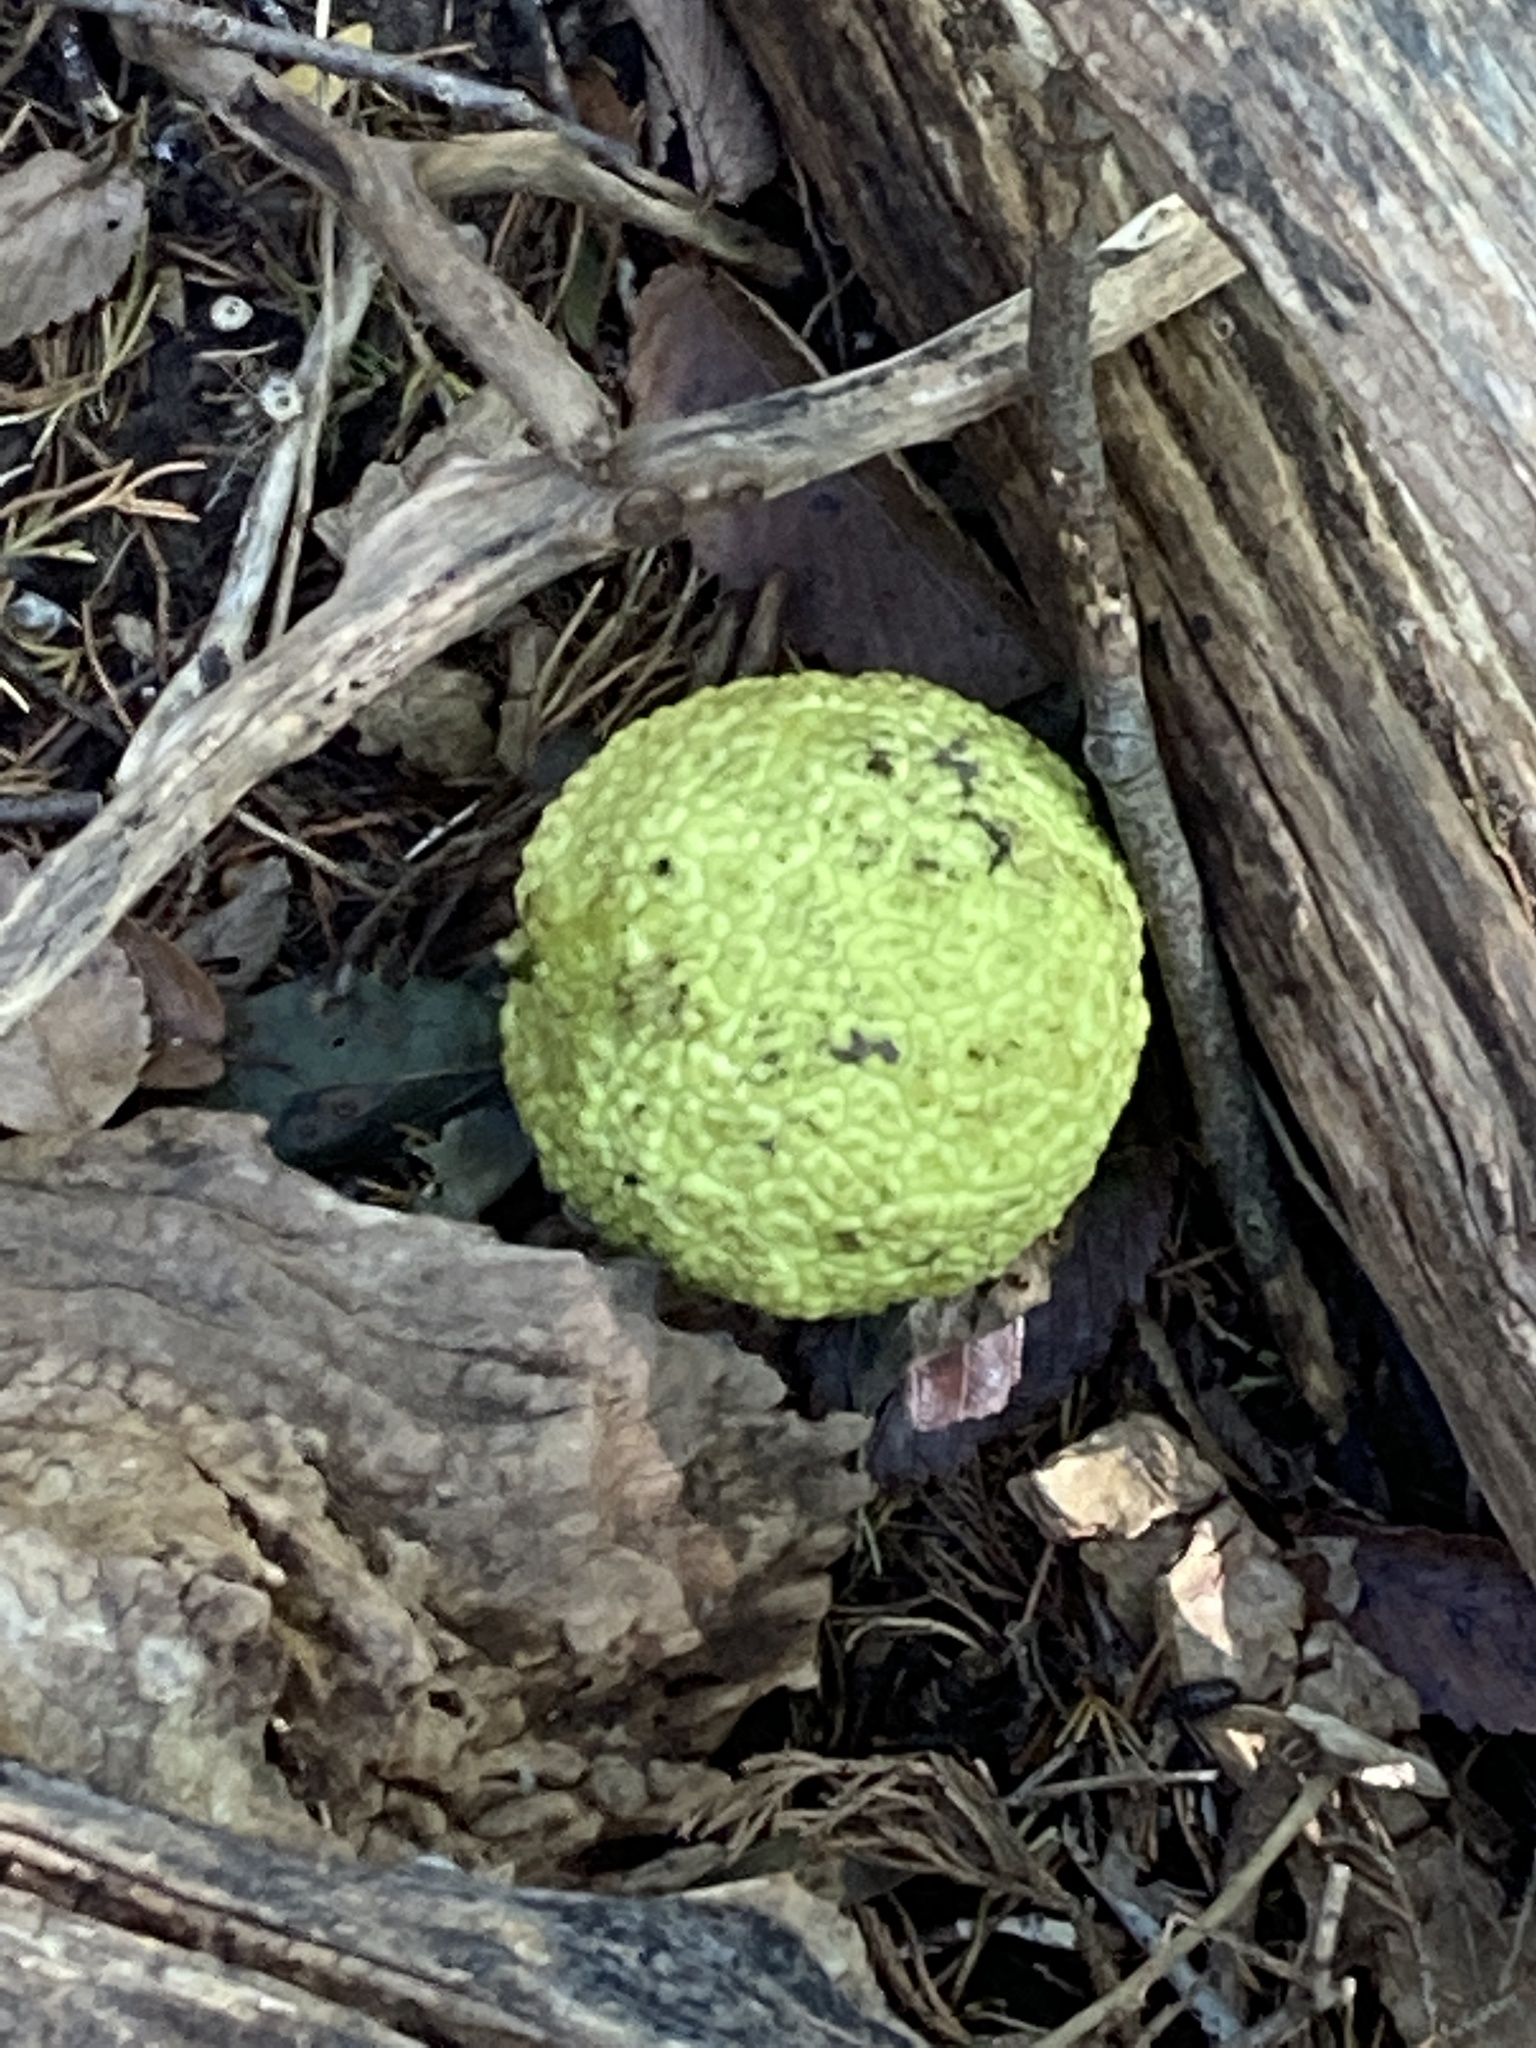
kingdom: Plantae
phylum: Tracheophyta
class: Magnoliopsida
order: Rosales
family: Moraceae
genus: Maclura
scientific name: Maclura pomifera
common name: Osage-orange
